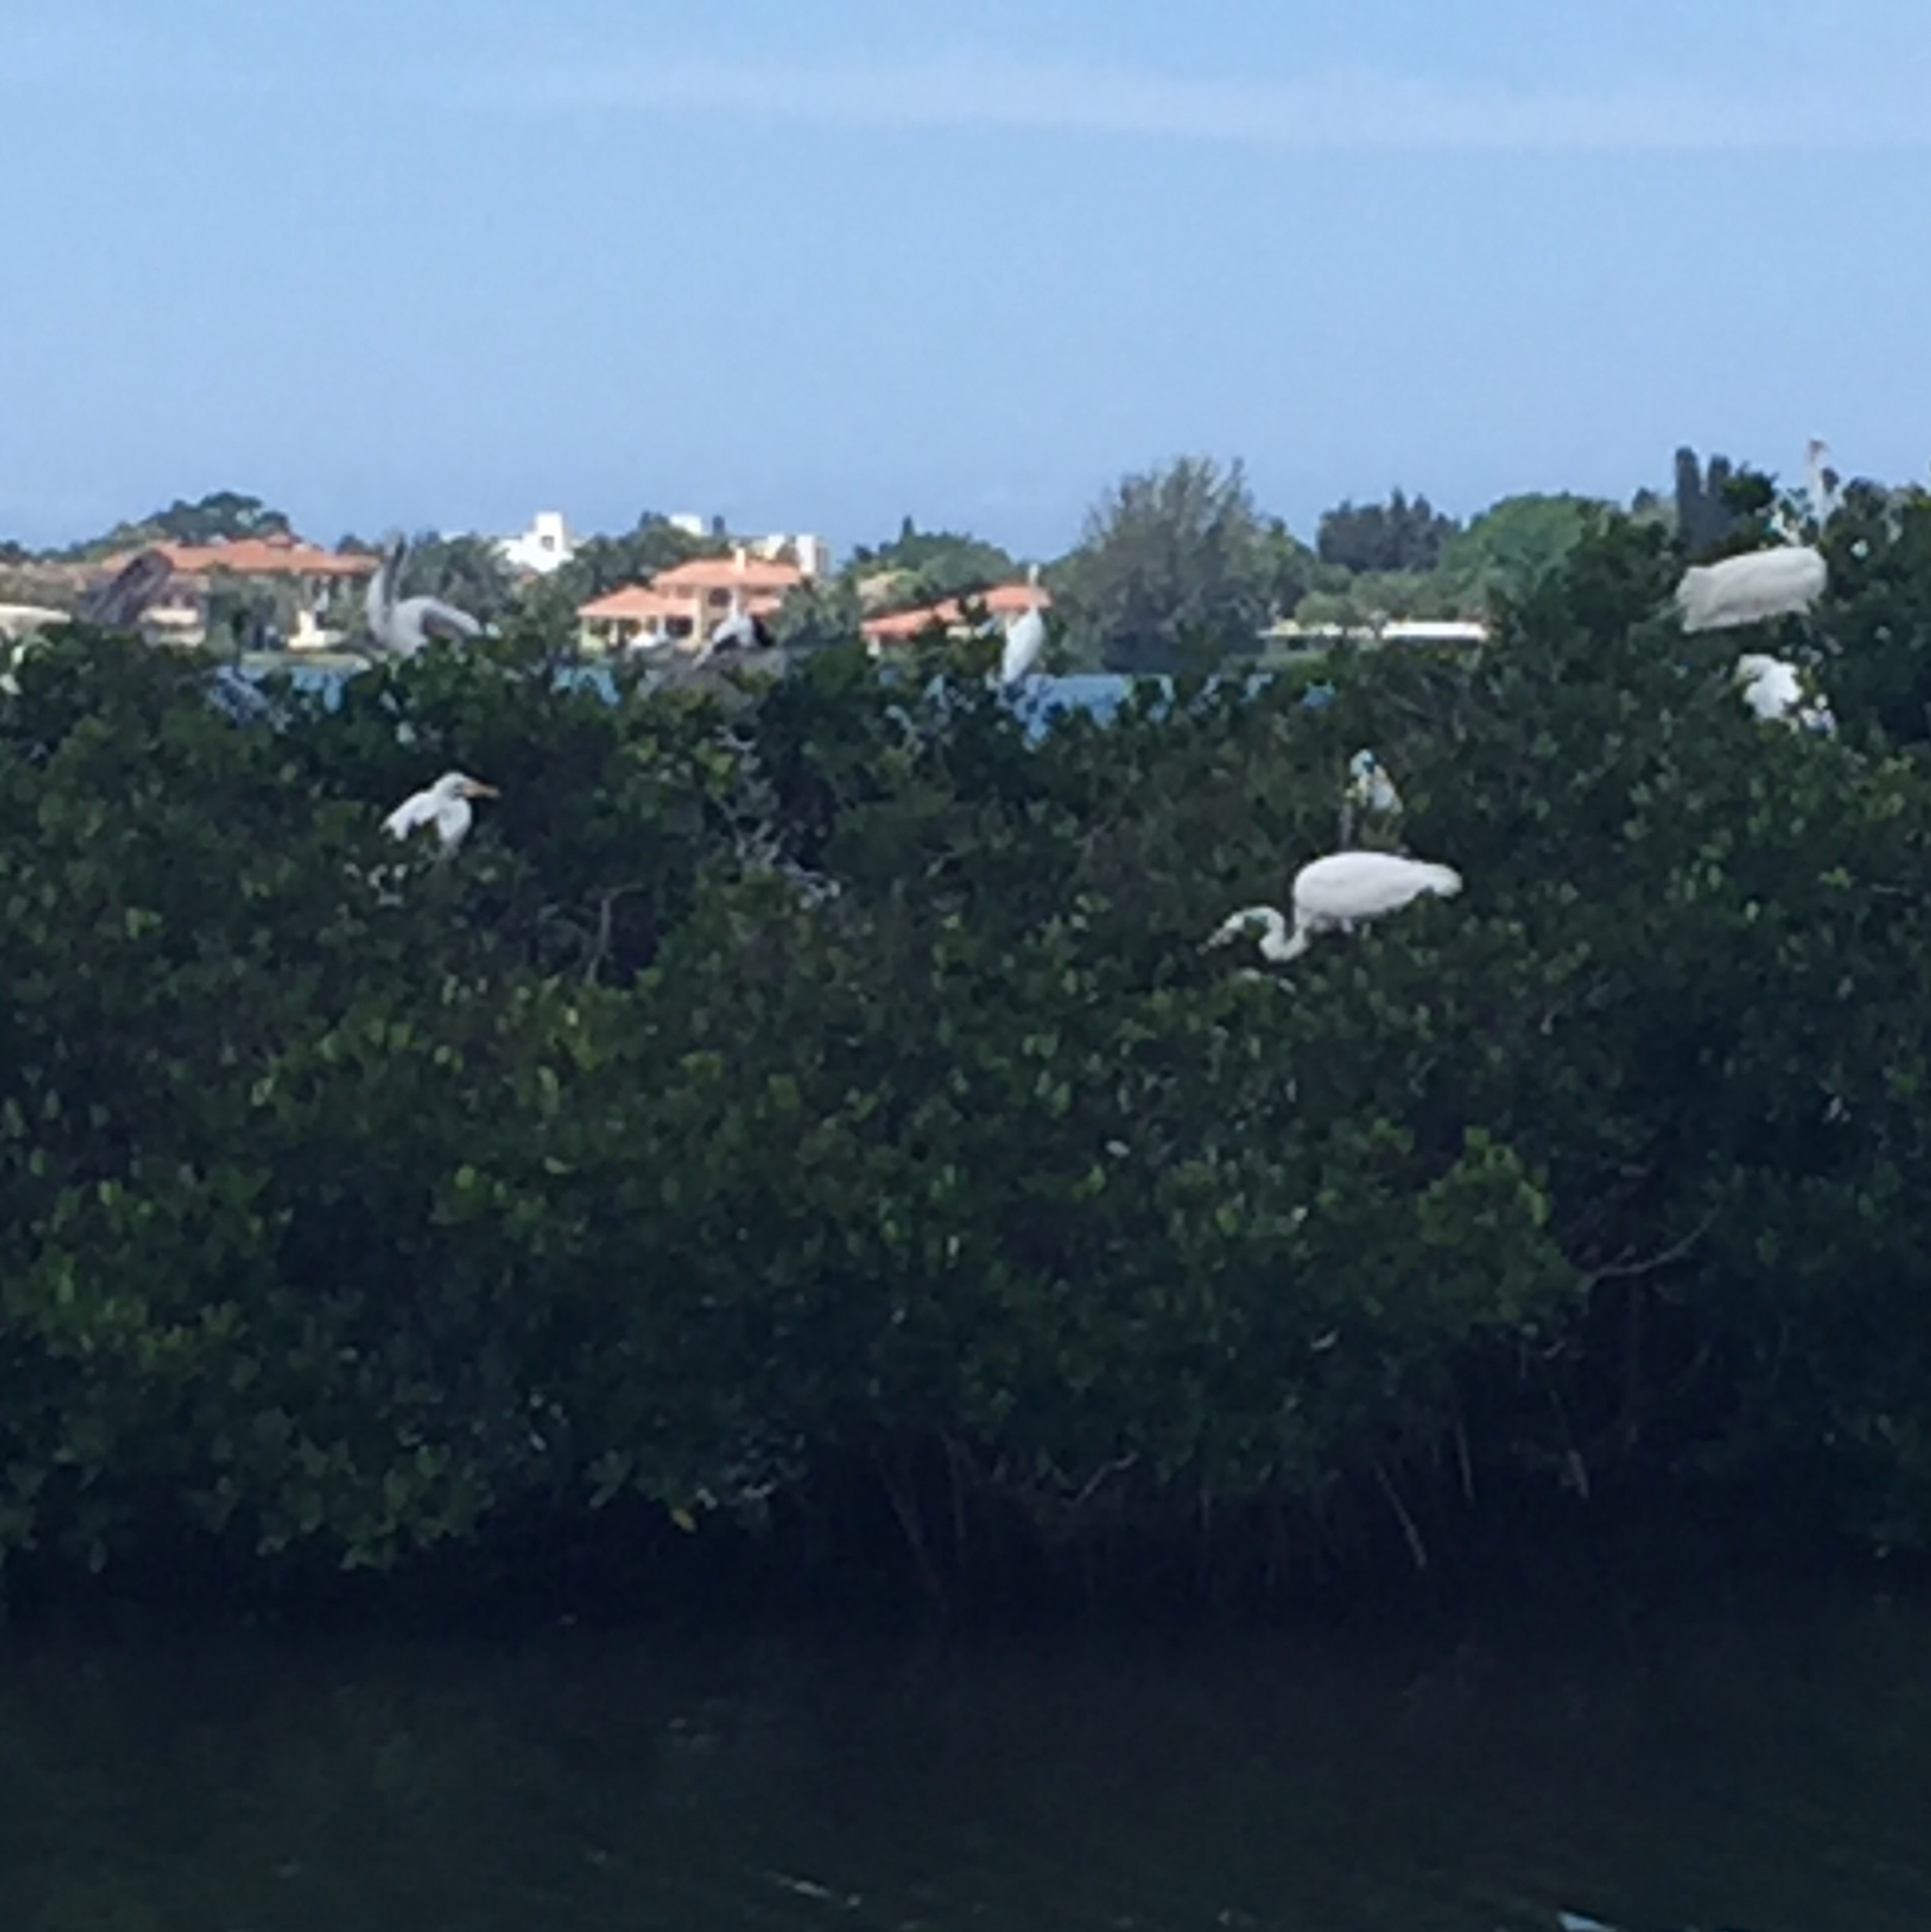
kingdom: Animalia
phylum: Chordata
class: Aves
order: Pelecaniformes
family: Ardeidae
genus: Ardea
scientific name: Ardea alba
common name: Great egret
